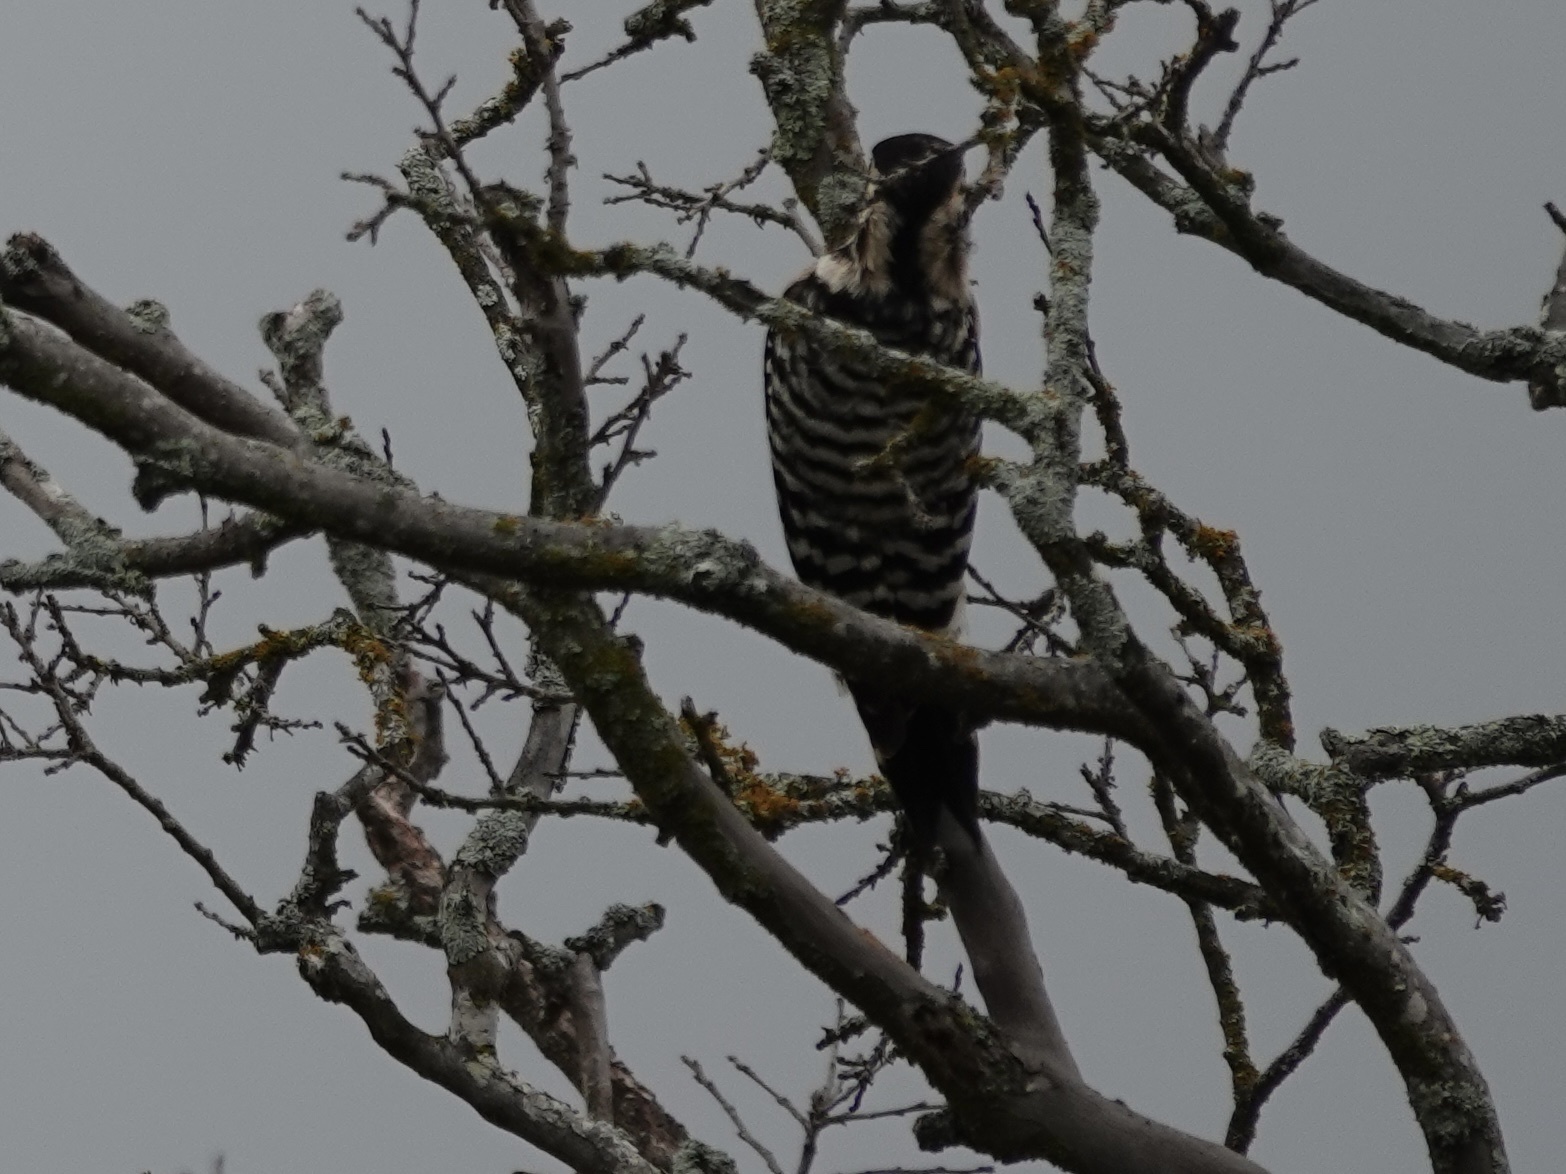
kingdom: Animalia
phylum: Chordata
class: Aves
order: Piciformes
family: Picidae
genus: Dryobates
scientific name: Dryobates scalaris
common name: Ladder-backed woodpecker
